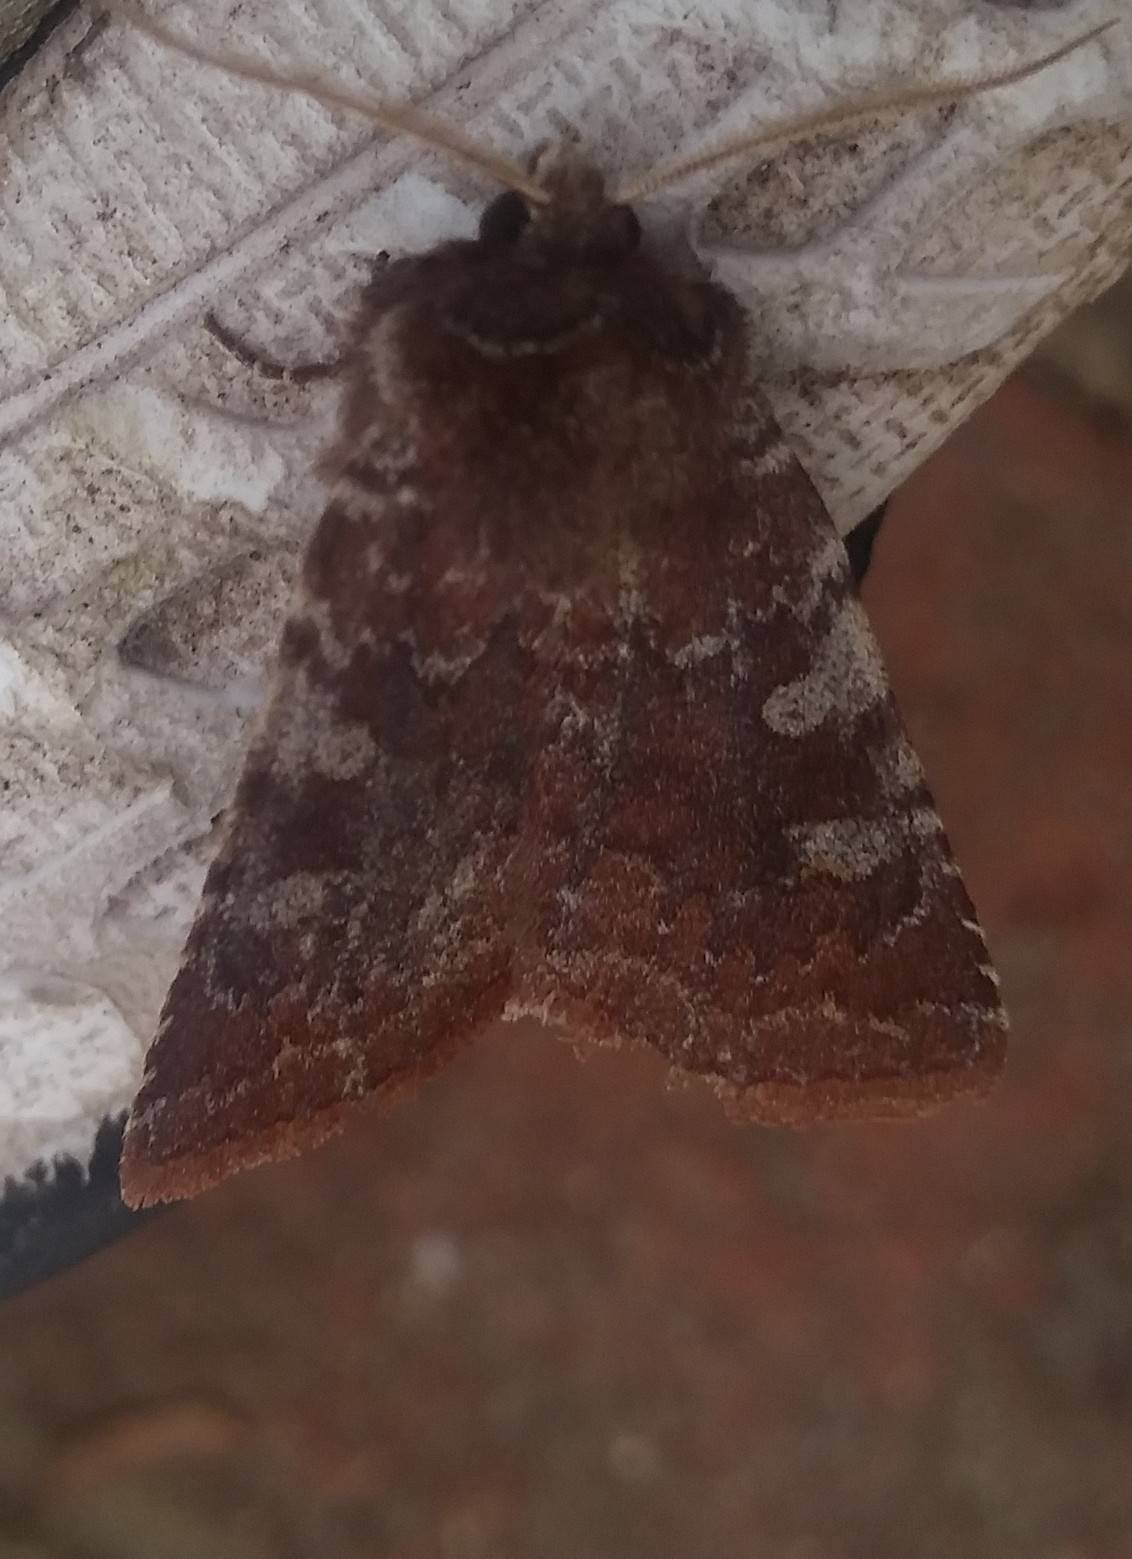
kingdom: Animalia
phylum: Arthropoda
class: Insecta
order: Lepidoptera
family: Noctuidae
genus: Cerastis
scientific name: Cerastis tenebrifera
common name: Reddish speckled dart
